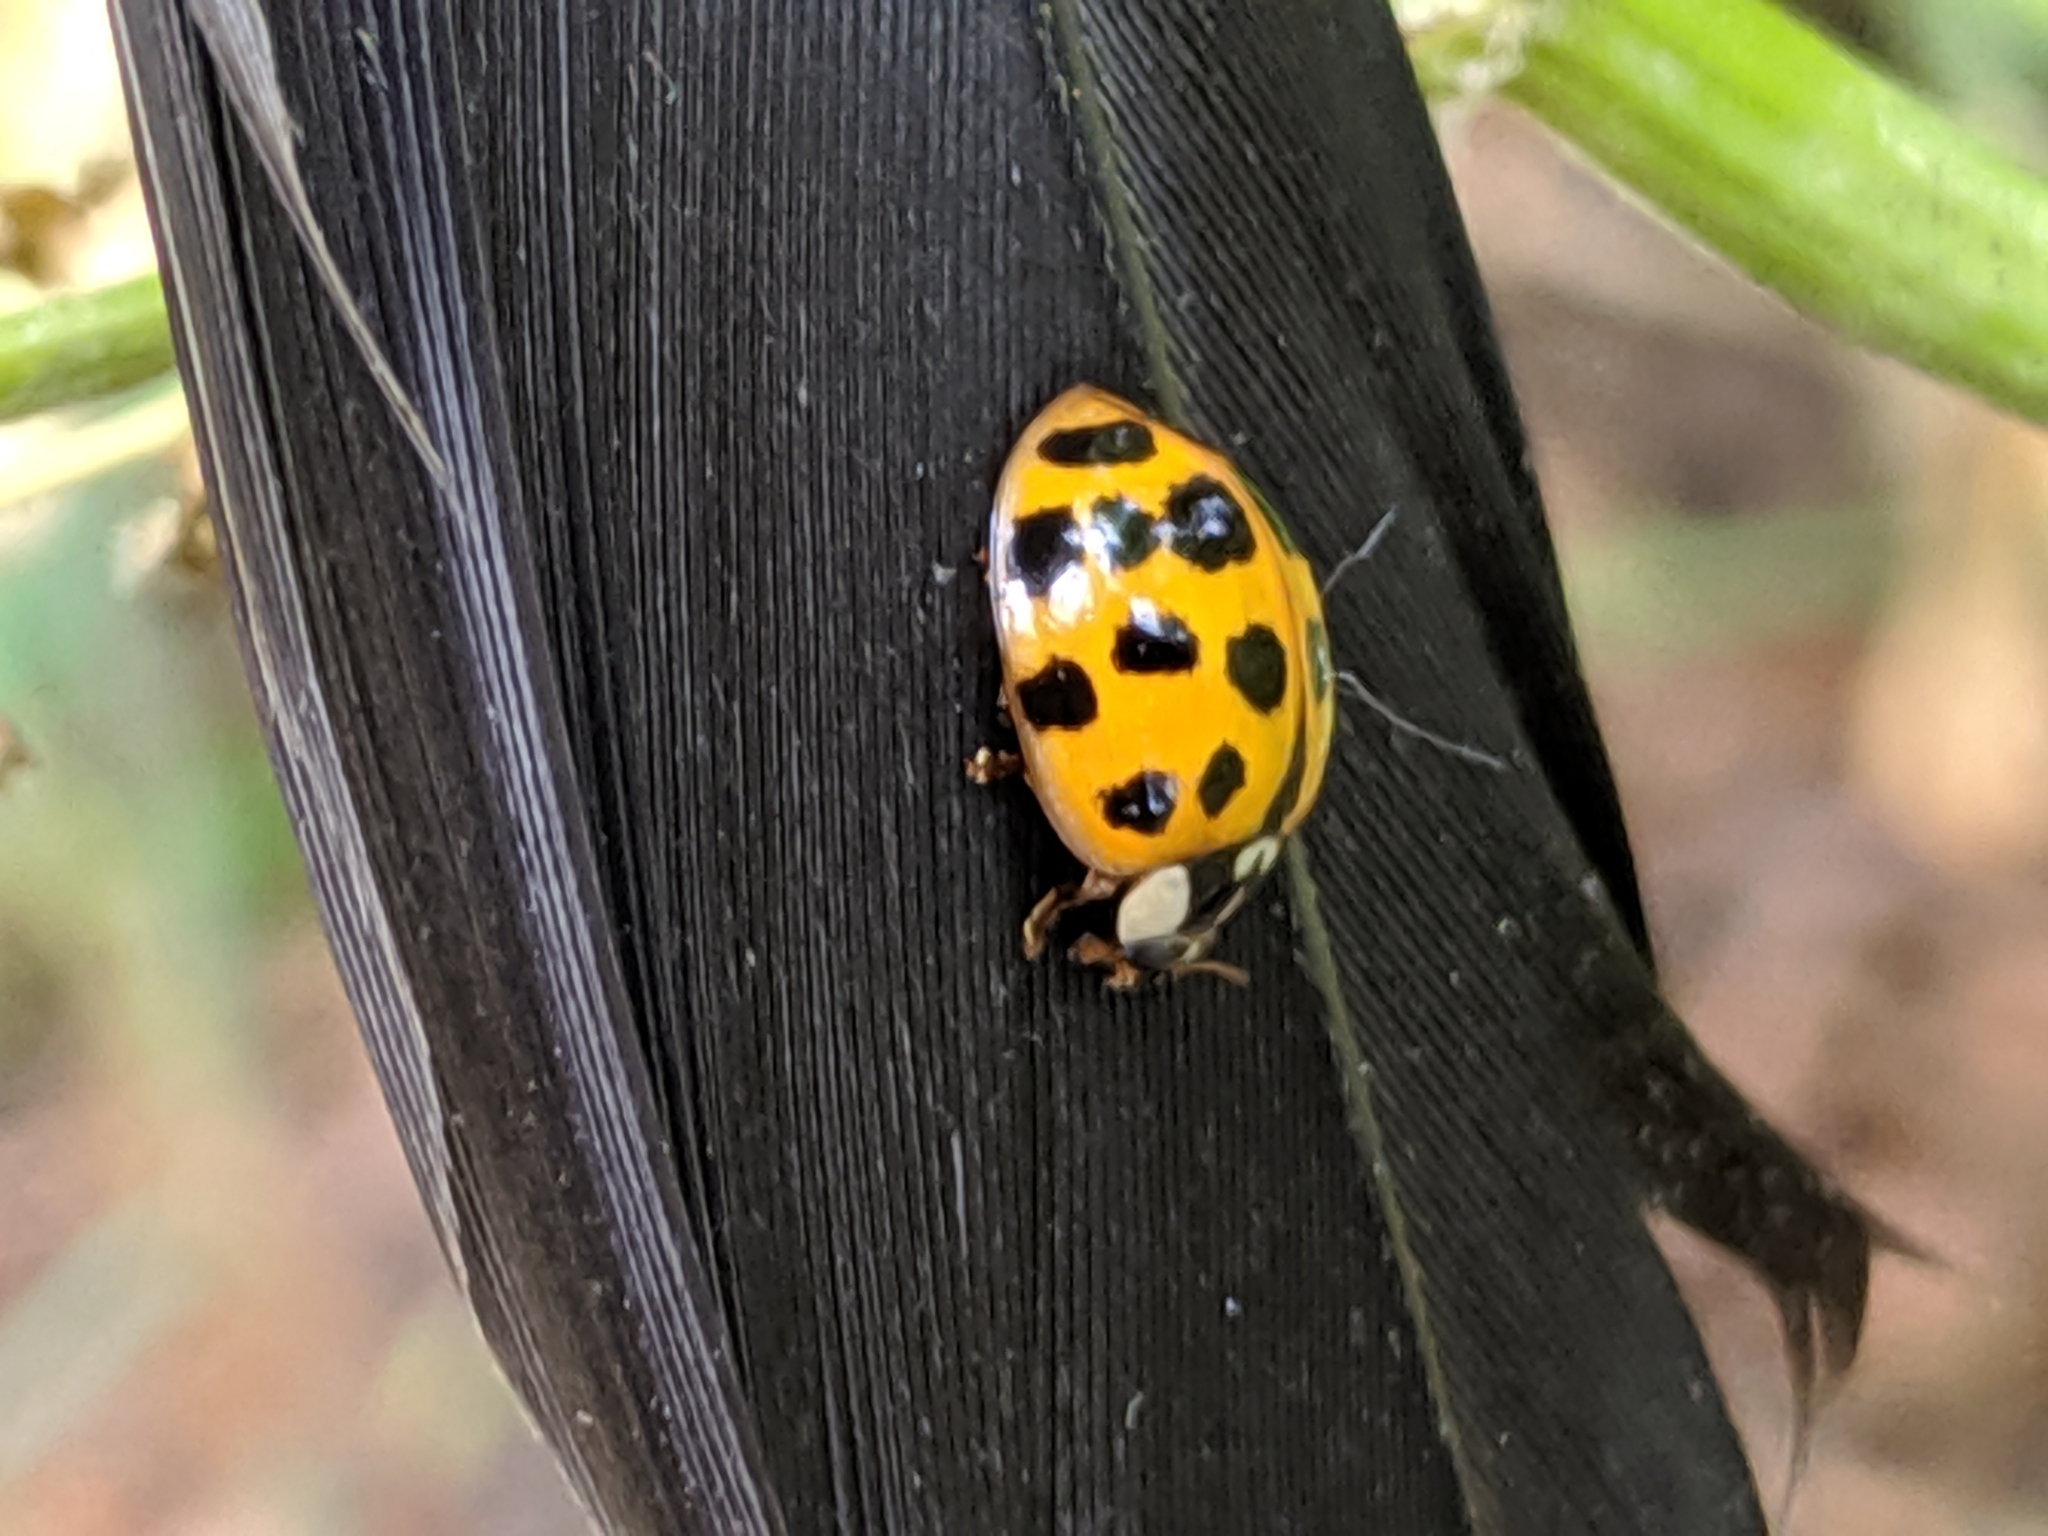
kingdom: Animalia
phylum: Arthropoda
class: Insecta
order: Coleoptera
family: Coccinellidae
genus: Harmonia
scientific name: Harmonia axyridis
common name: Harlequin ladybird
